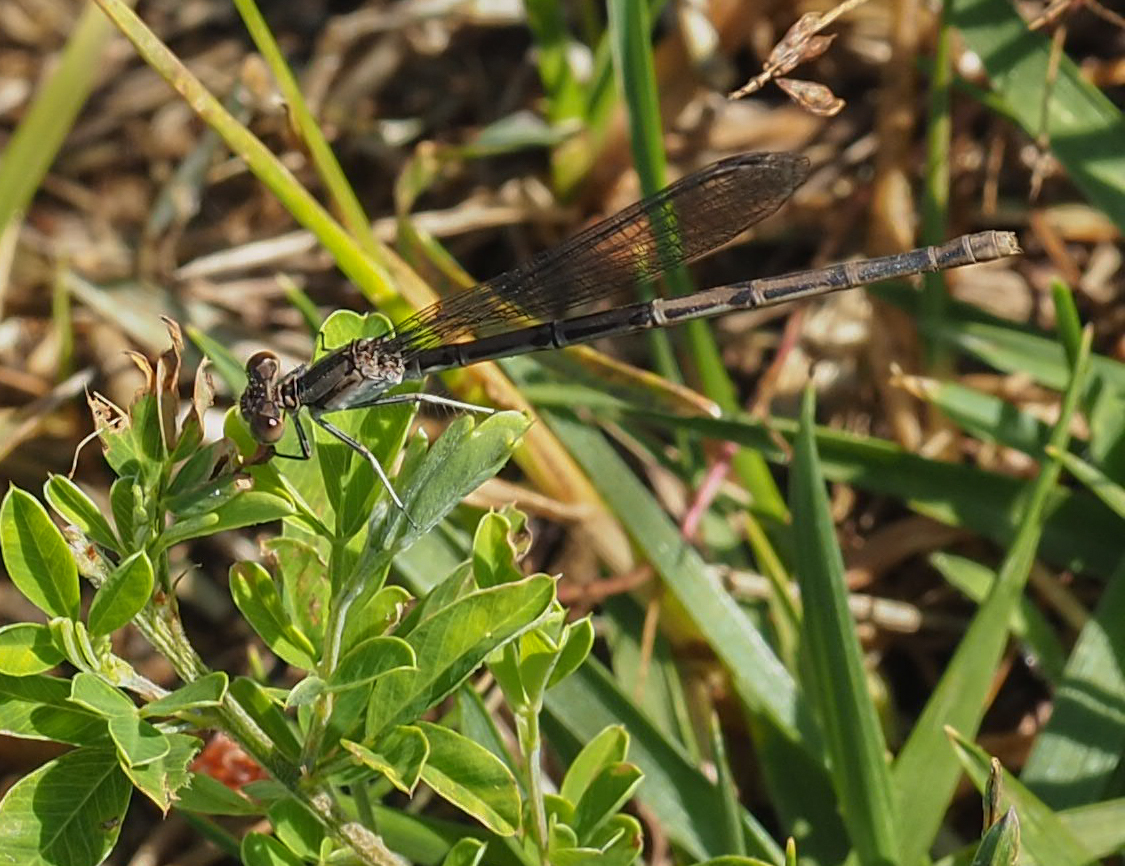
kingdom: Animalia
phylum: Arthropoda
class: Insecta
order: Odonata
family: Coenagrionidae
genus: Argia
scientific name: Argia fumipennis
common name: Variable dancer
